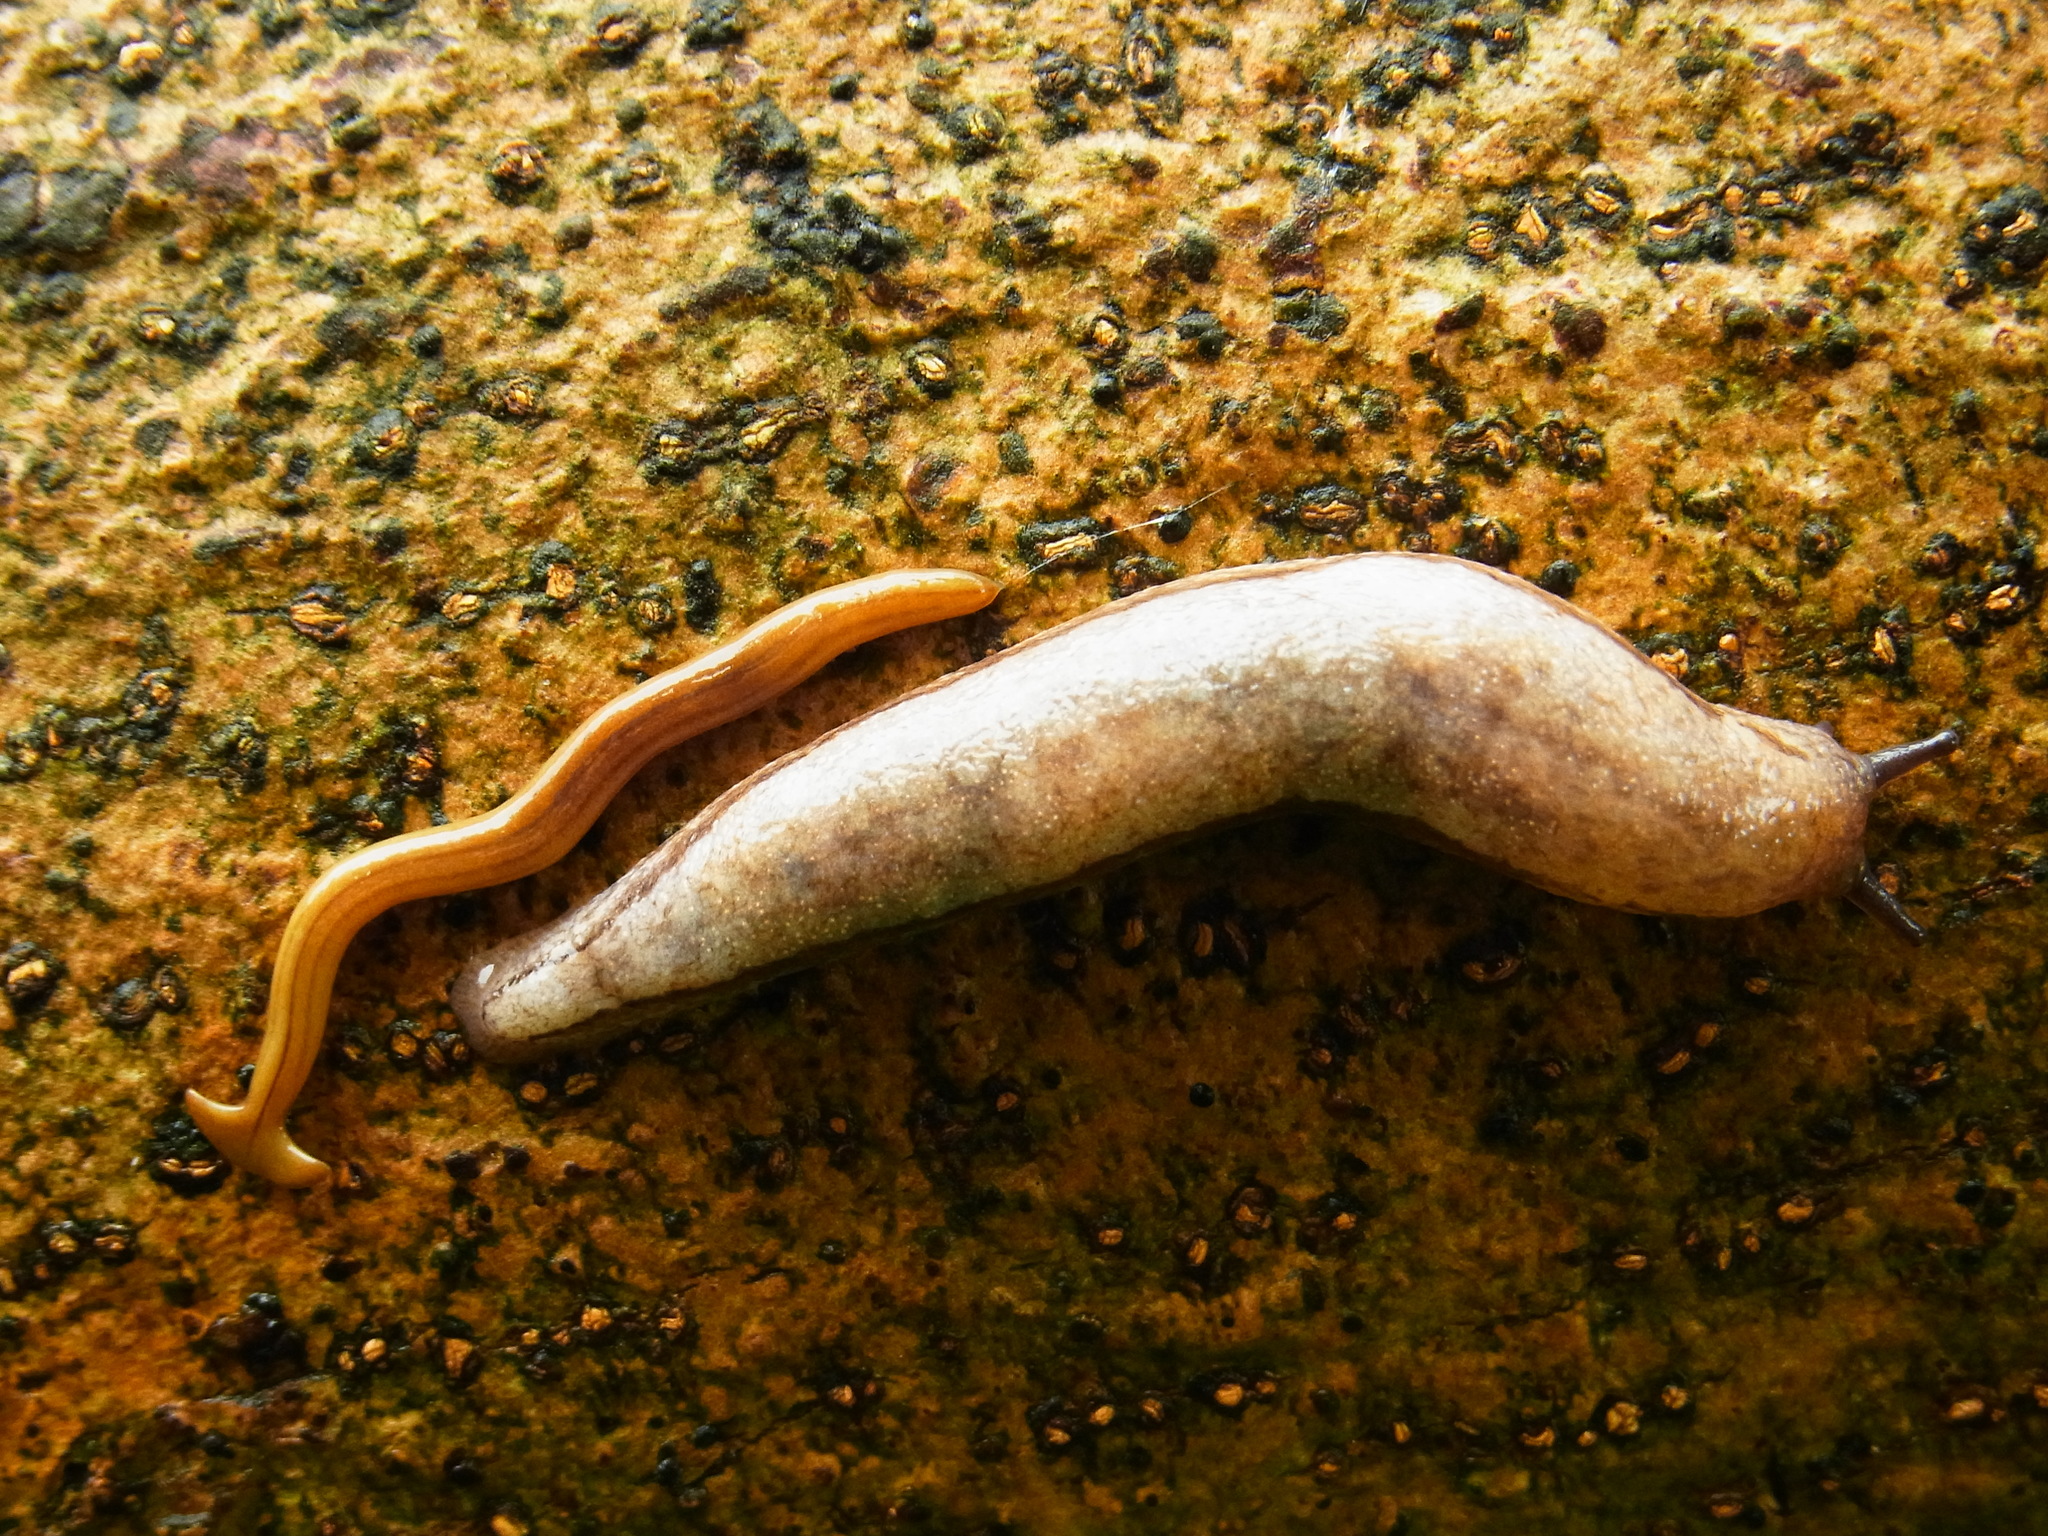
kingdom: Animalia
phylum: Mollusca
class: Gastropoda
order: Stylommatophora
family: Philomycidae
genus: Meghimatium
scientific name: Meghimatium bilineatum
